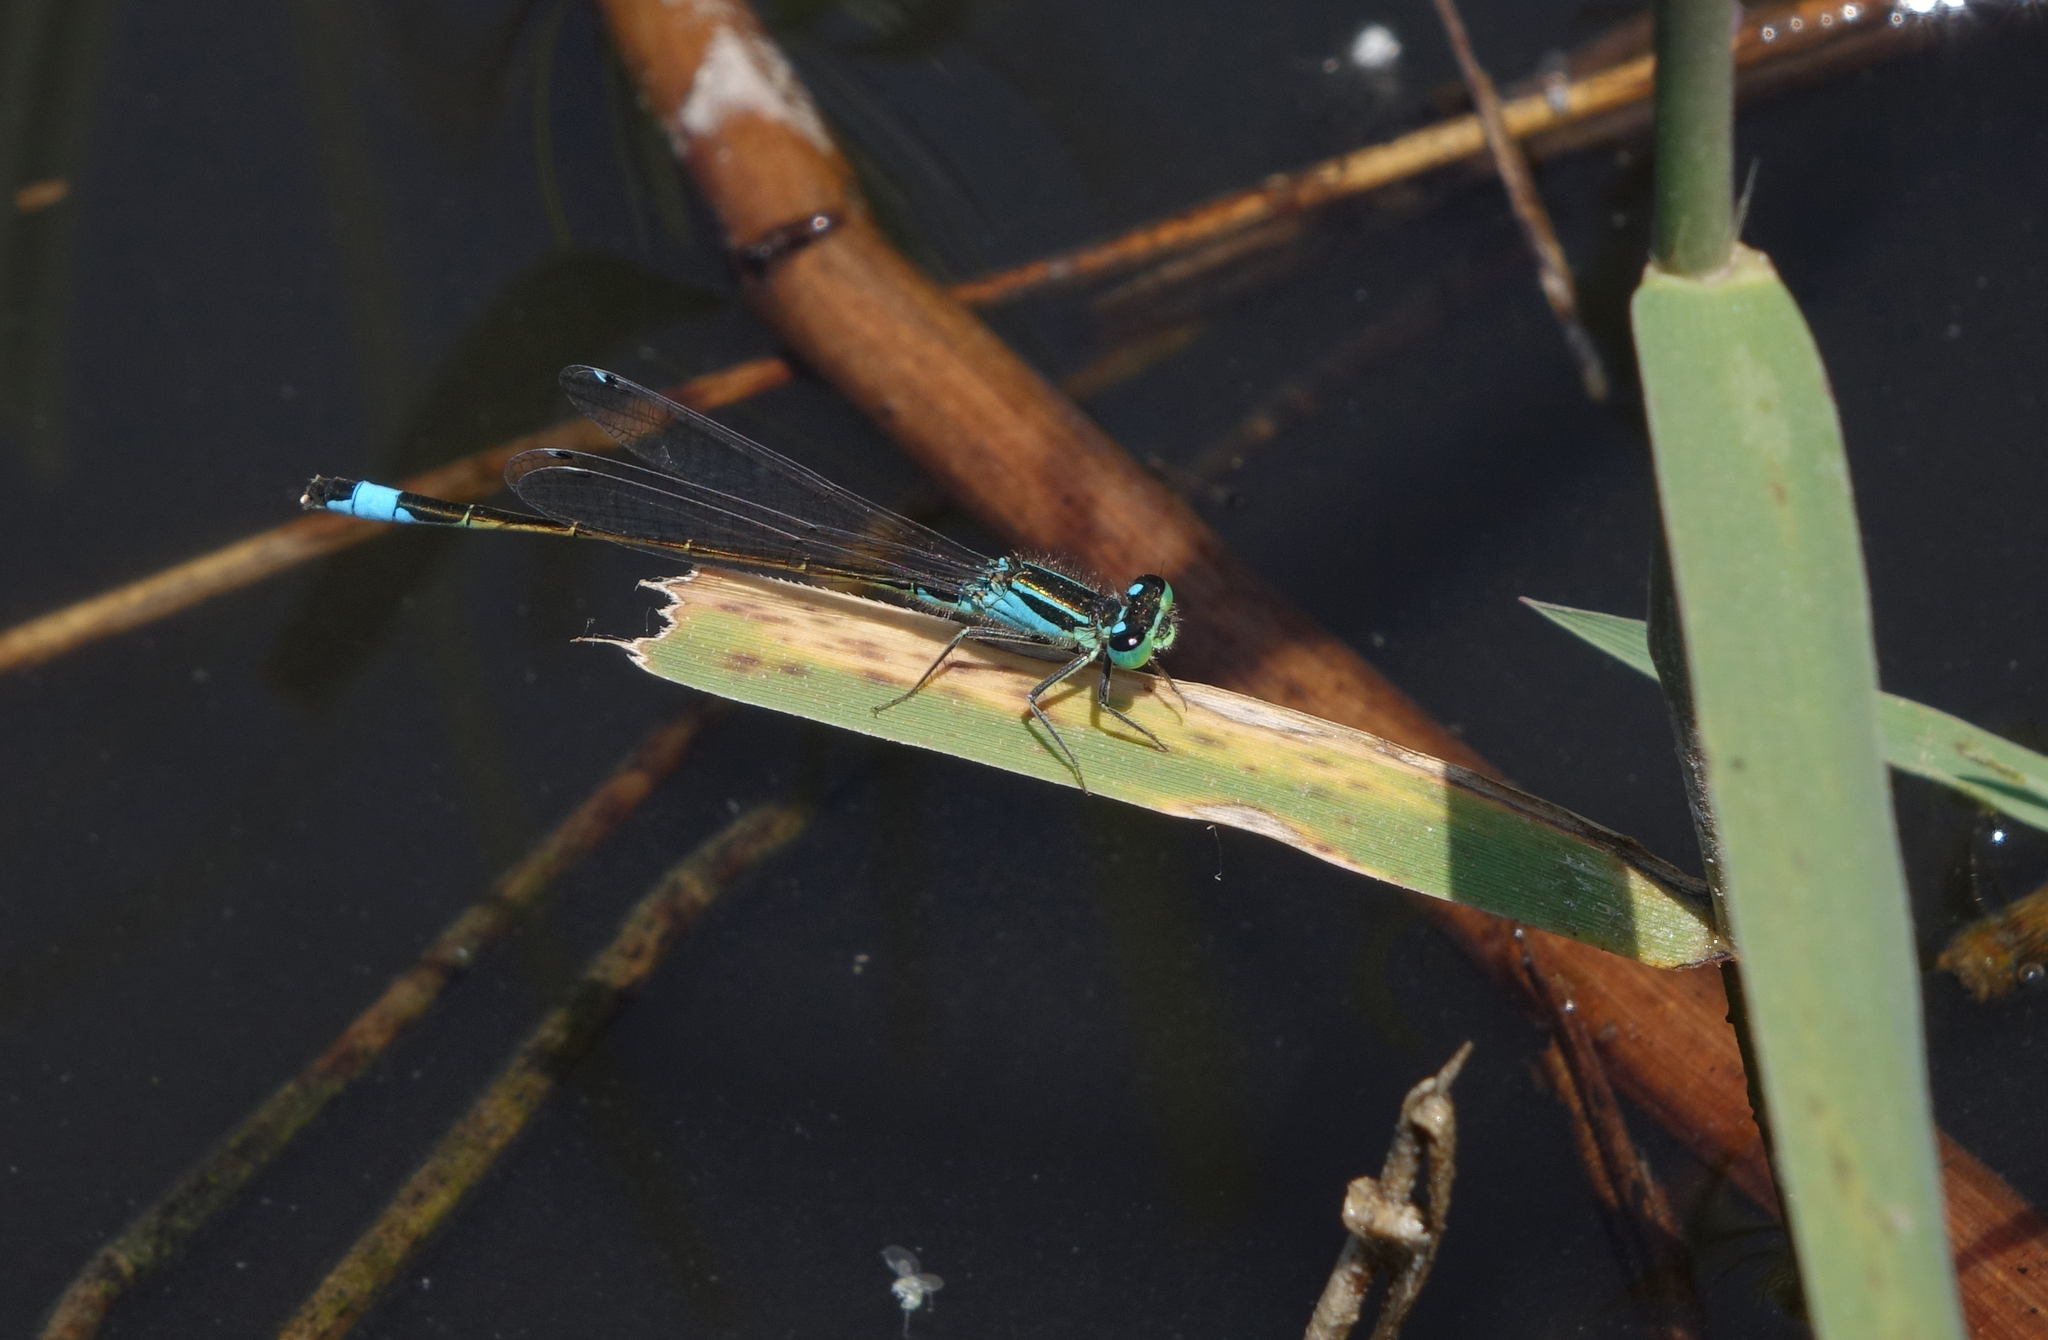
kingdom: Animalia
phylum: Arthropoda
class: Insecta
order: Odonata
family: Coenagrionidae
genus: Ischnura
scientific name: Ischnura elegans
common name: Blue-tailed damselfly
